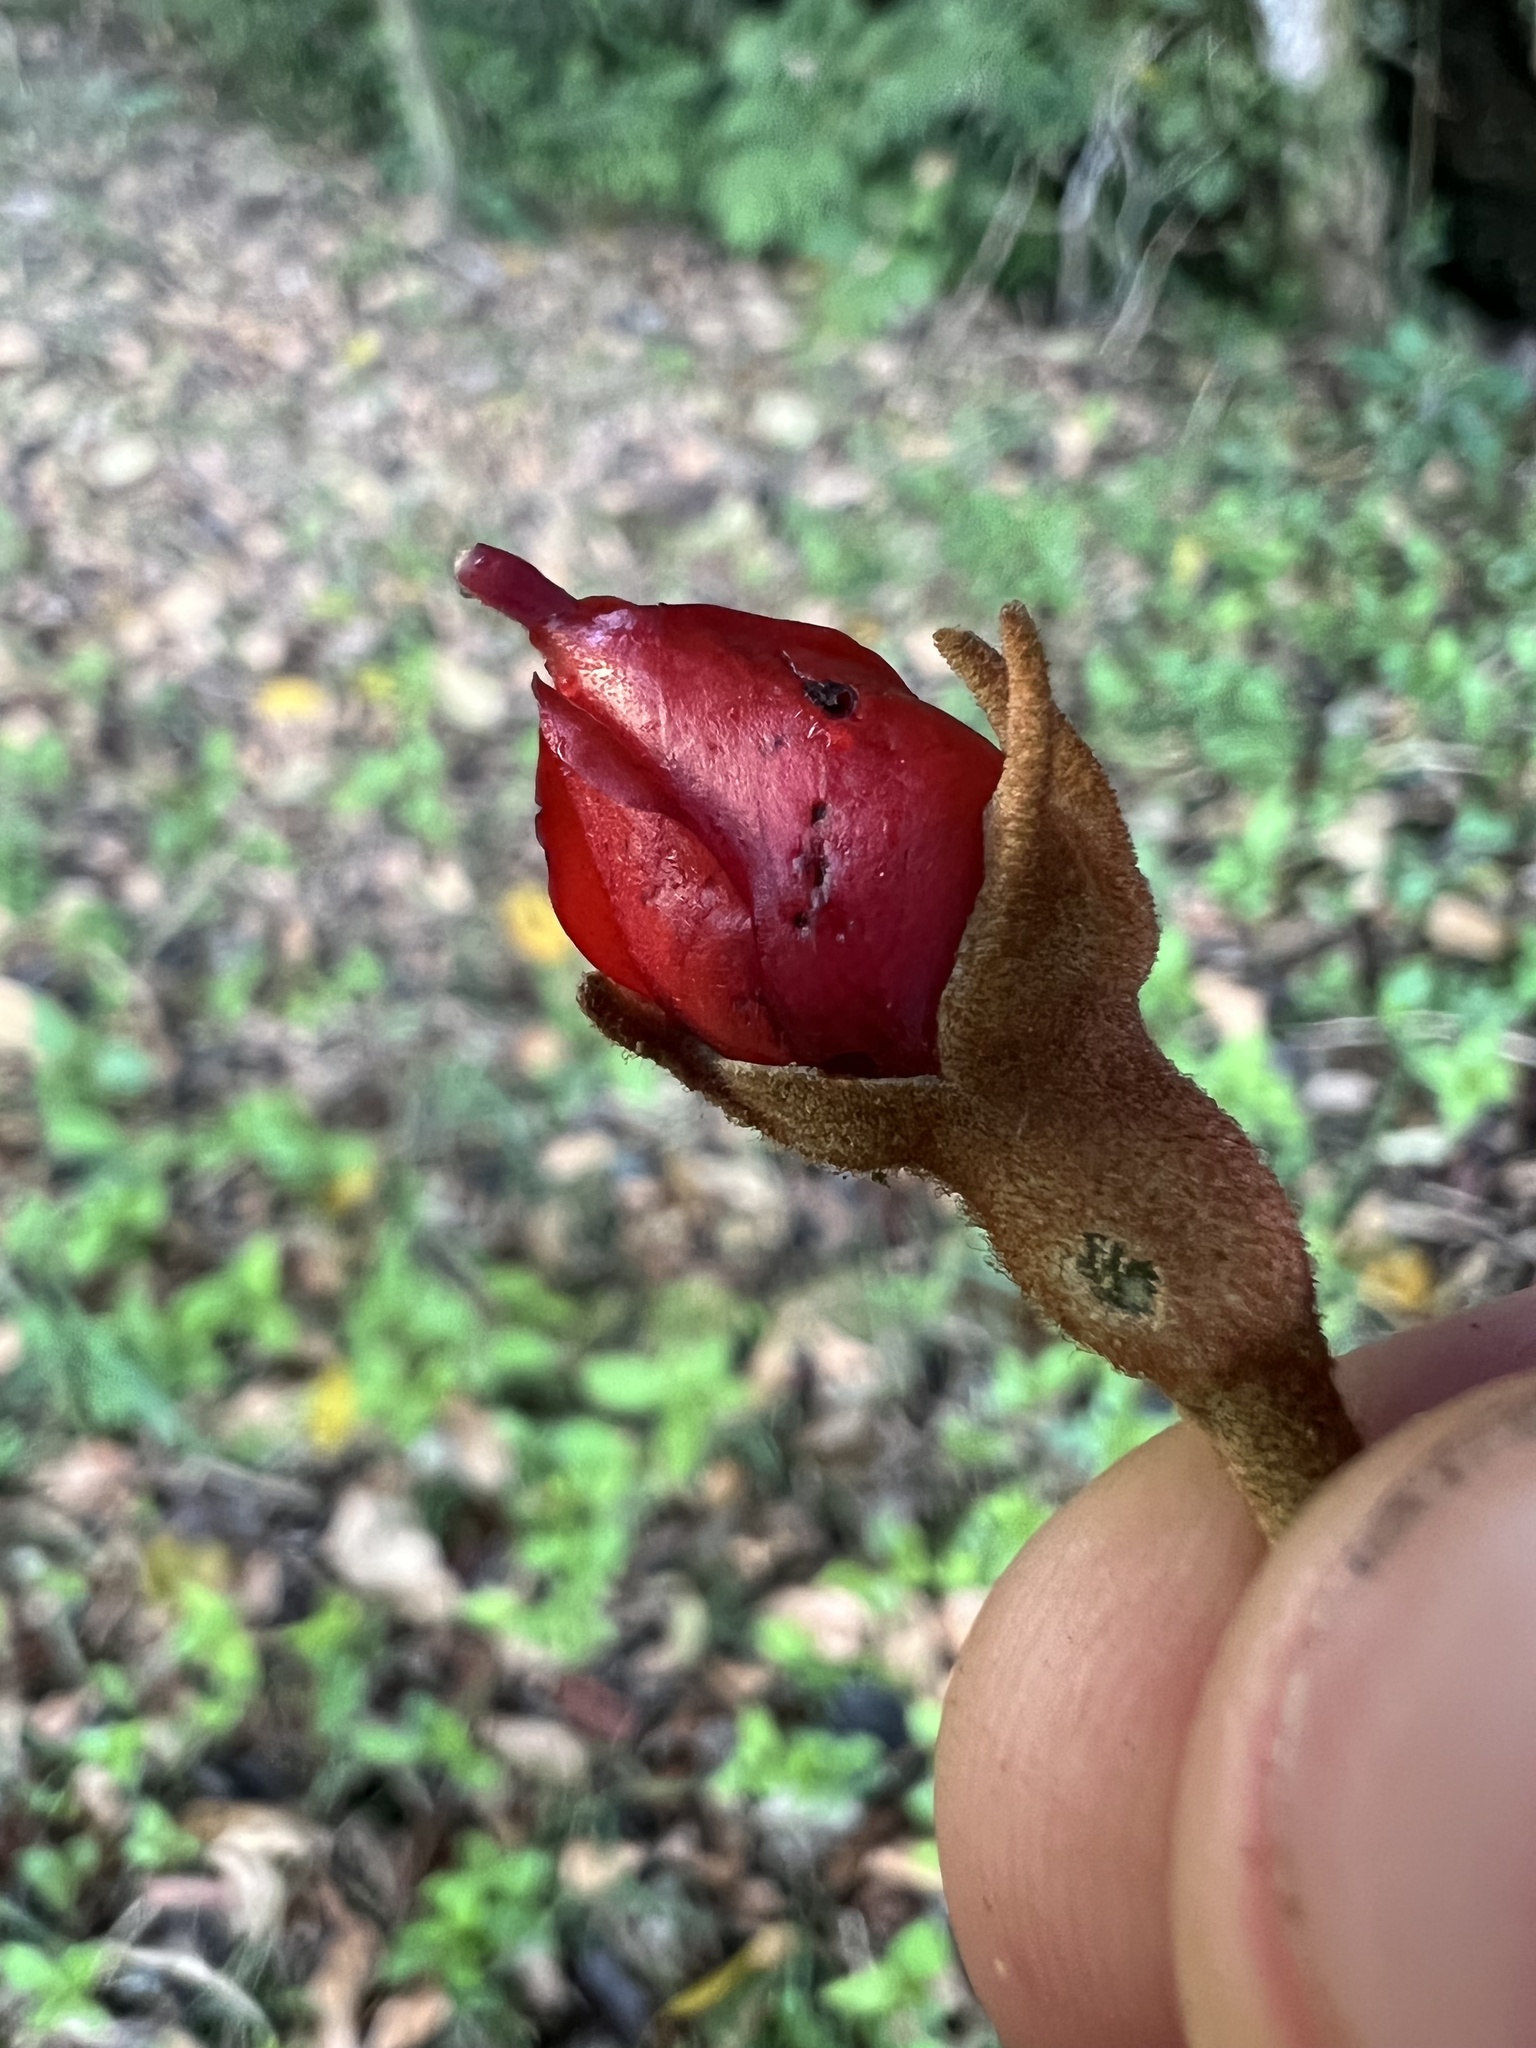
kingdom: Plantae
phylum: Tracheophyta
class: Magnoliopsida
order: Myrtales
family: Melastomataceae
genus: Meriania
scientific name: Meriania colombiana
